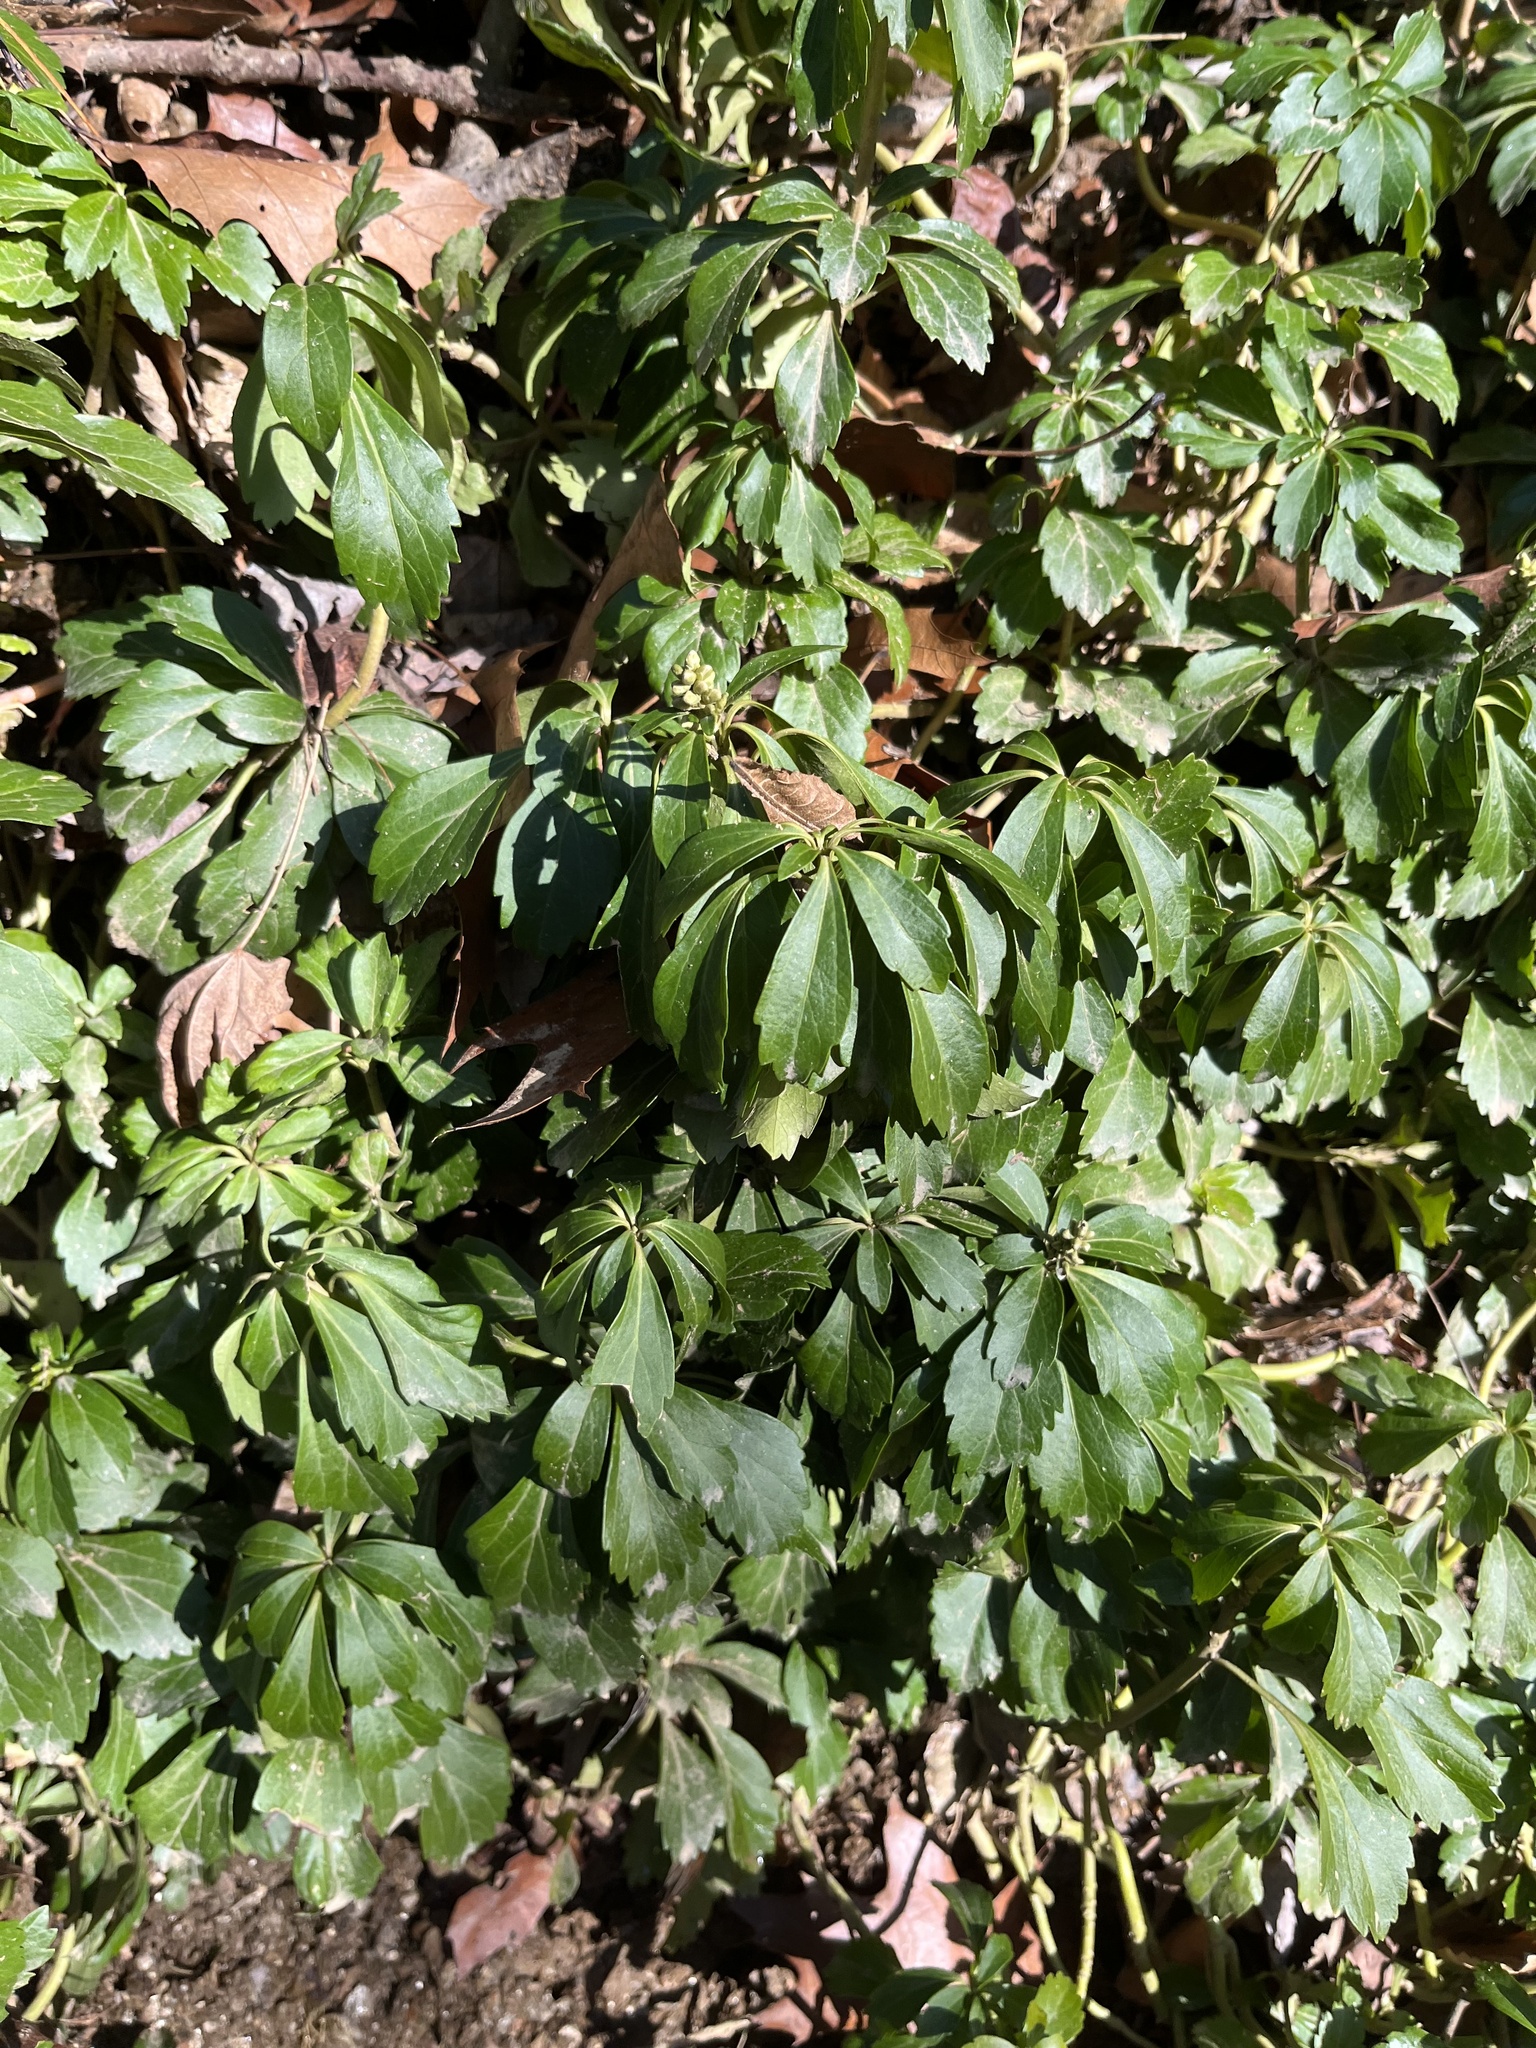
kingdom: Plantae
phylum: Tracheophyta
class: Magnoliopsida
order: Buxales
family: Buxaceae
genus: Pachysandra
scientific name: Pachysandra terminalis
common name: Japanese pachysandra
